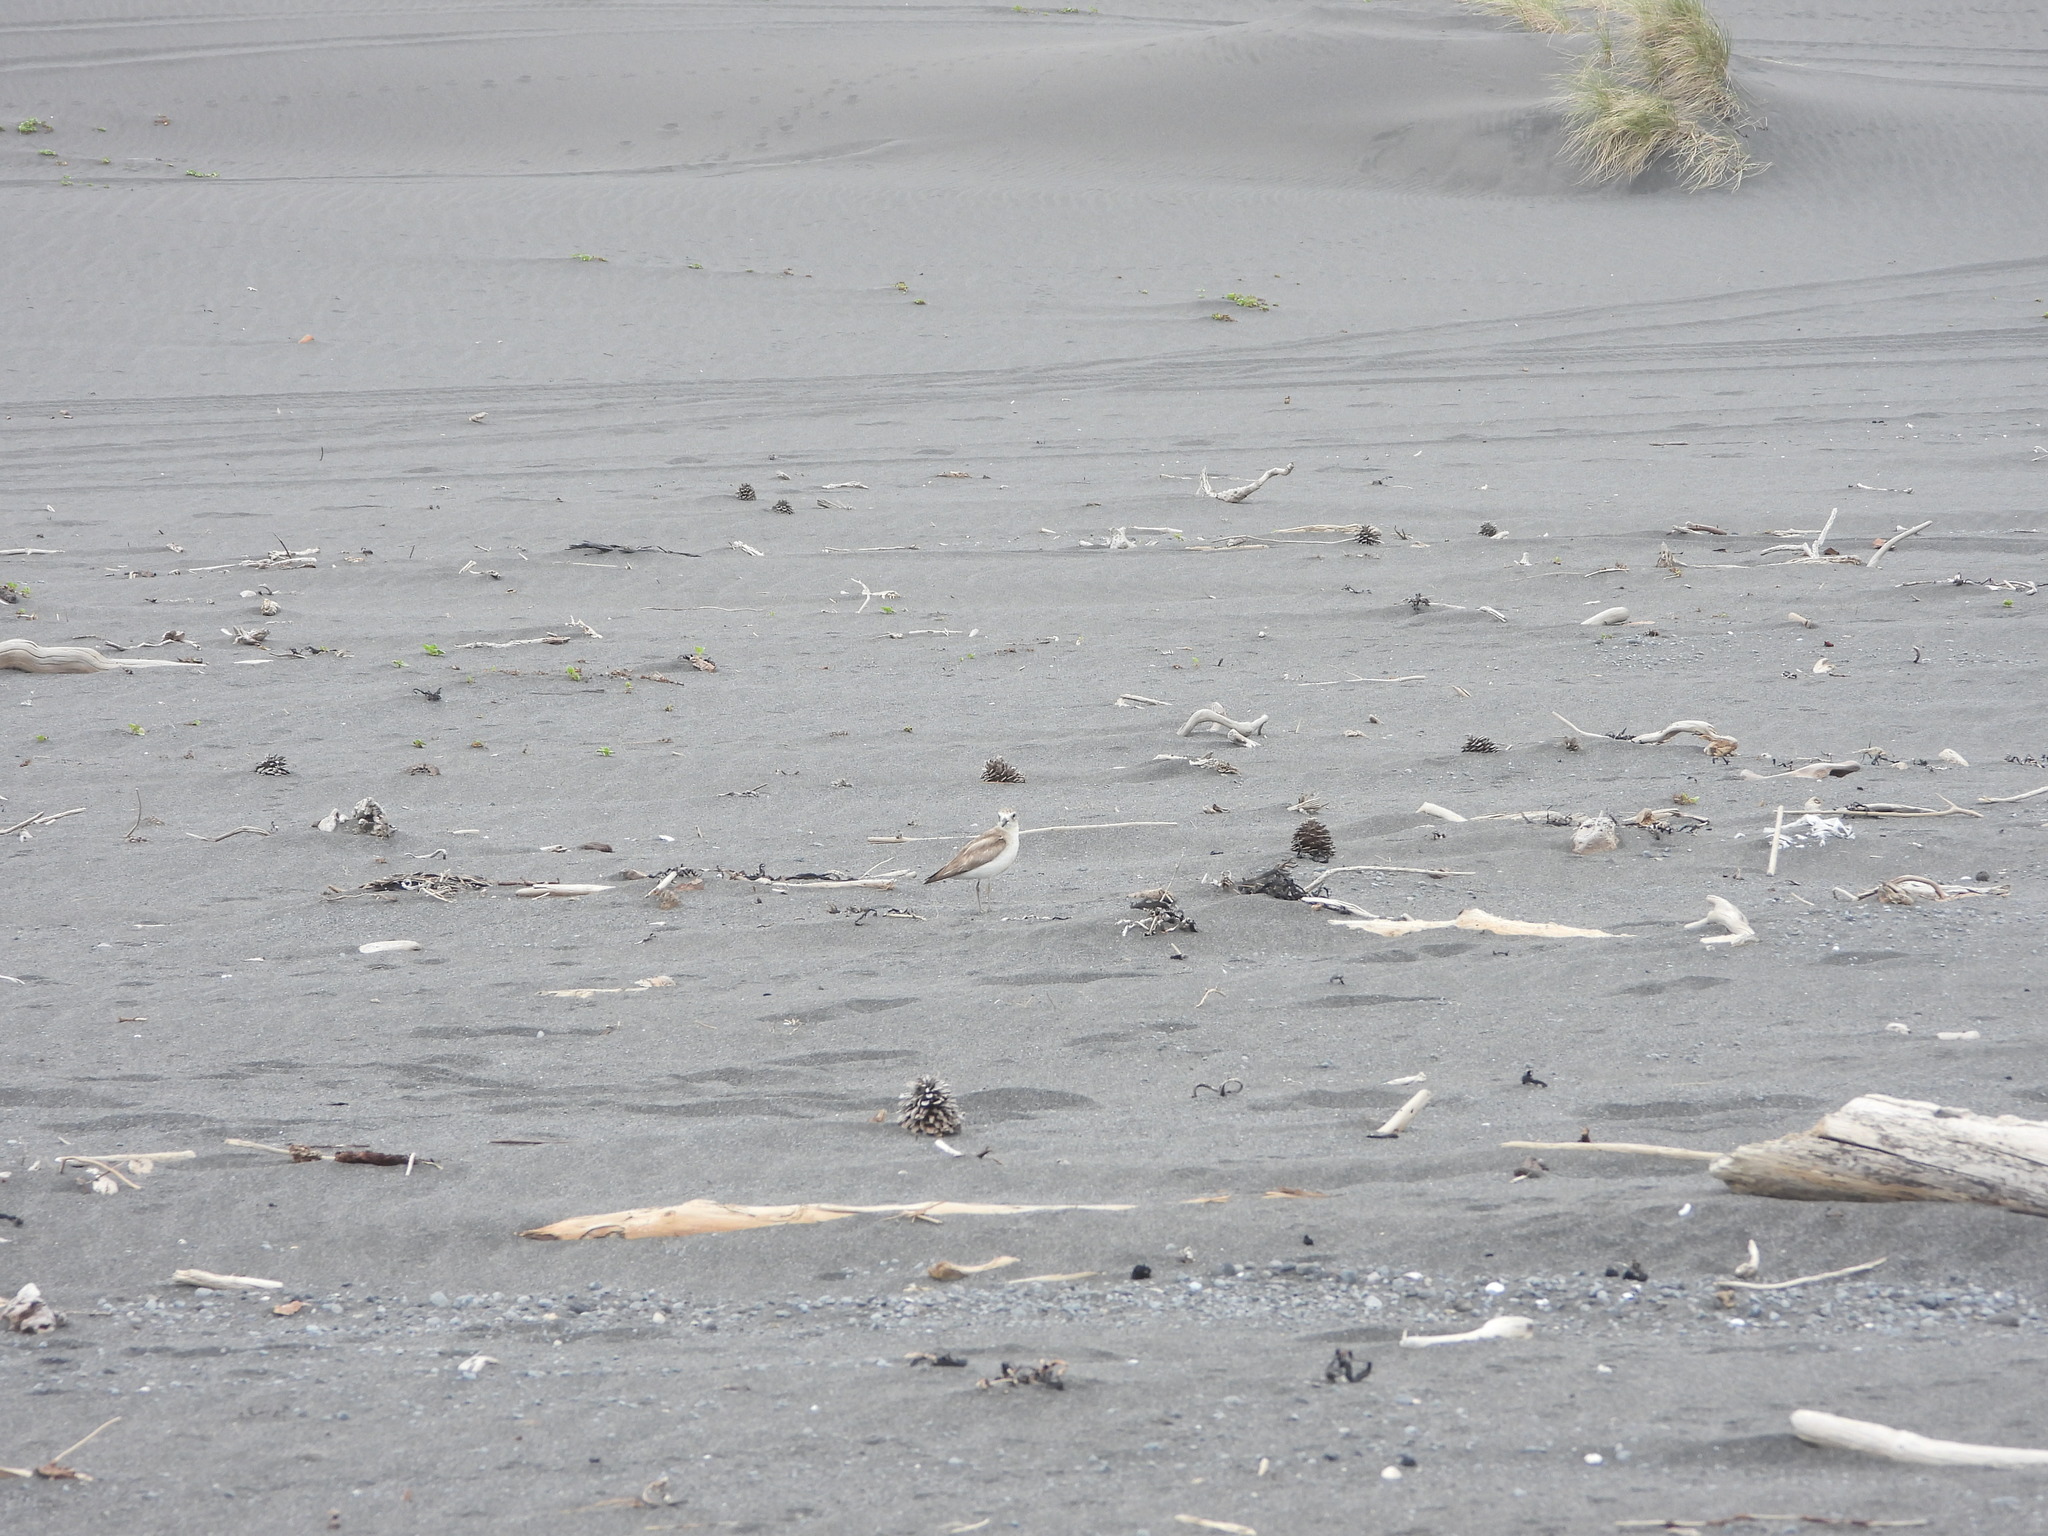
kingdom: Animalia
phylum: Chordata
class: Aves
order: Charadriiformes
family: Charadriidae
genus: Anarhynchus
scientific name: Anarhynchus
